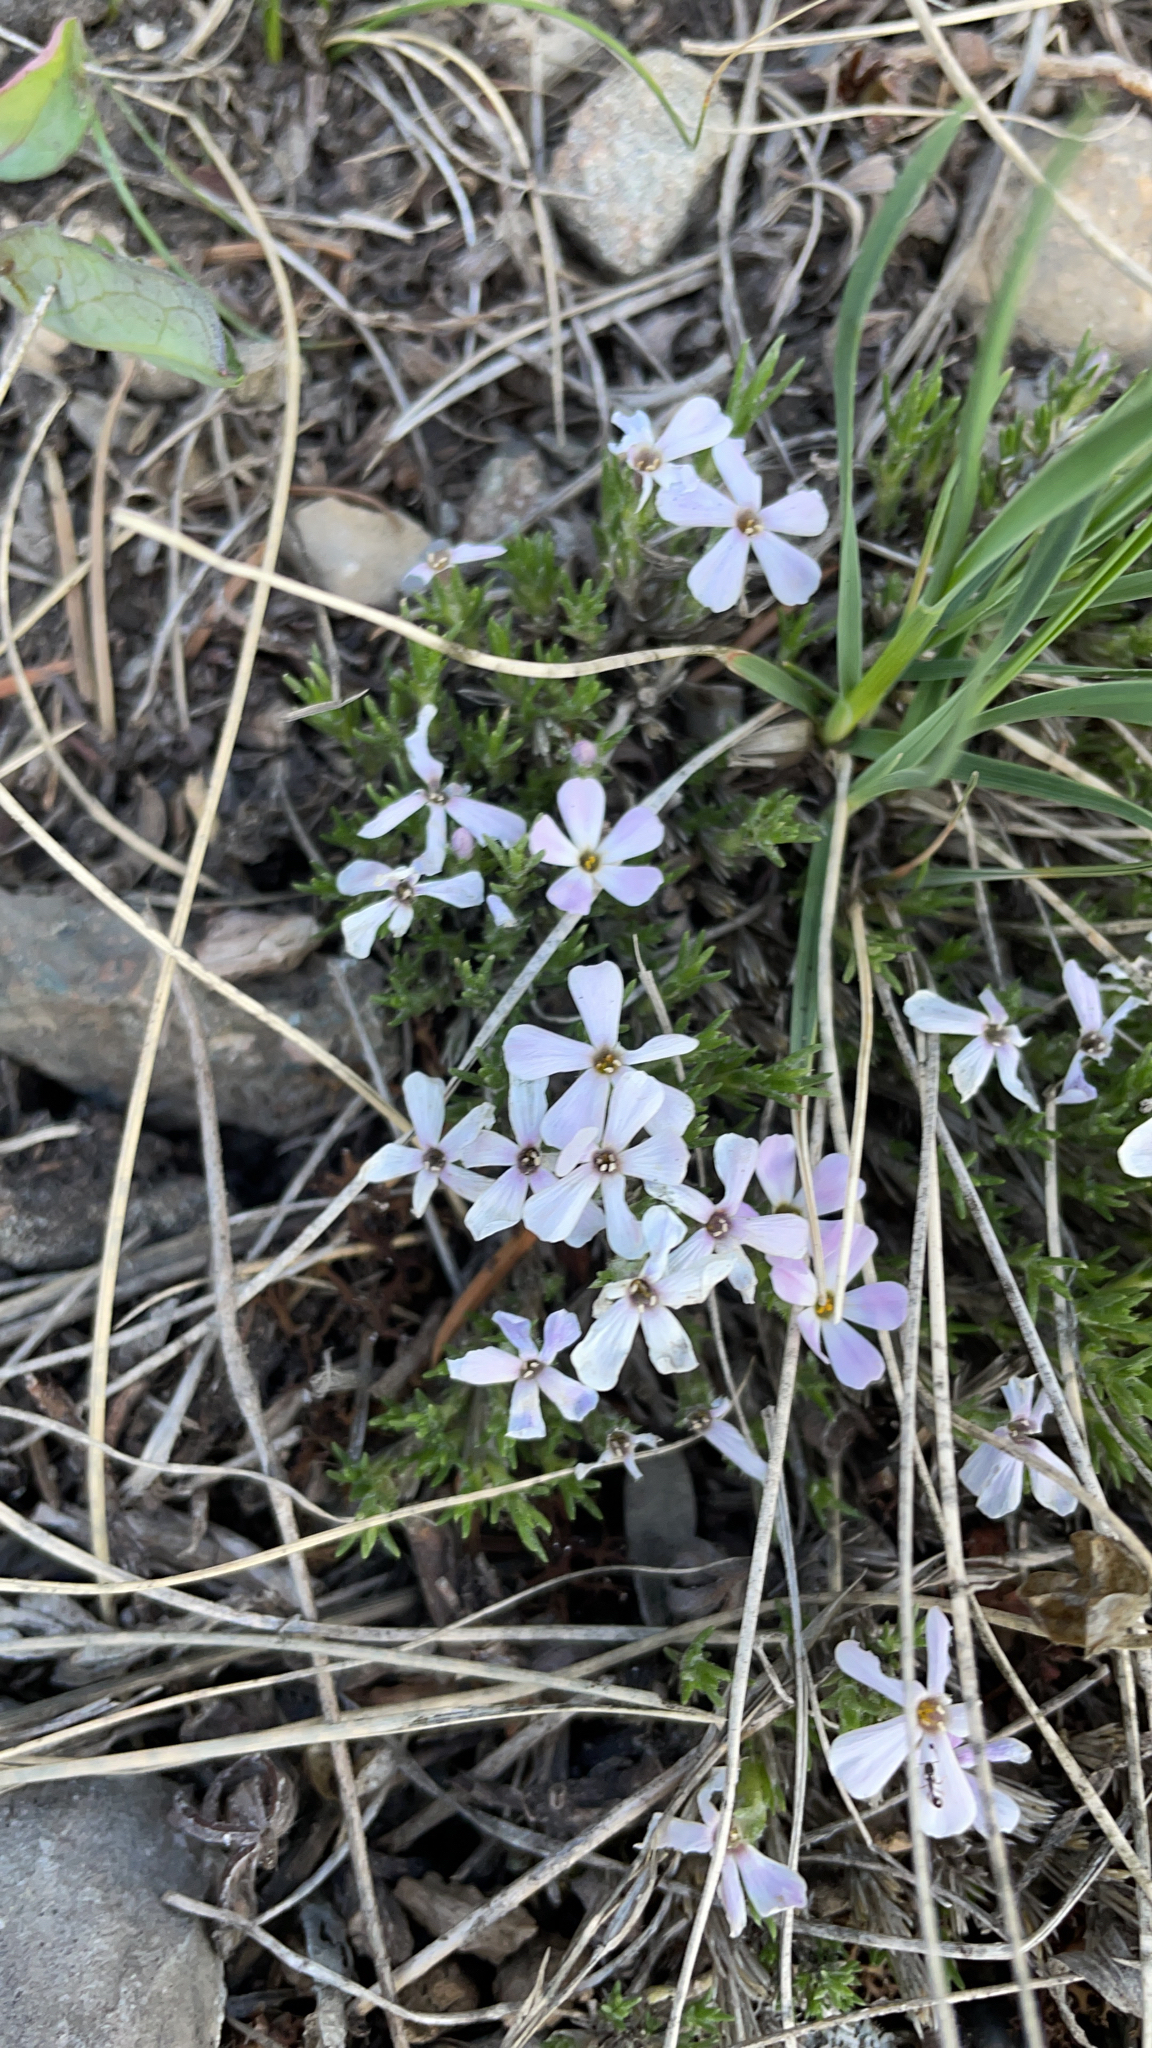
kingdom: Plantae
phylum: Tracheophyta
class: Magnoliopsida
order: Ericales
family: Polemoniaceae
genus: Phlox
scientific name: Phlox hoodii
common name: Moss phlox
